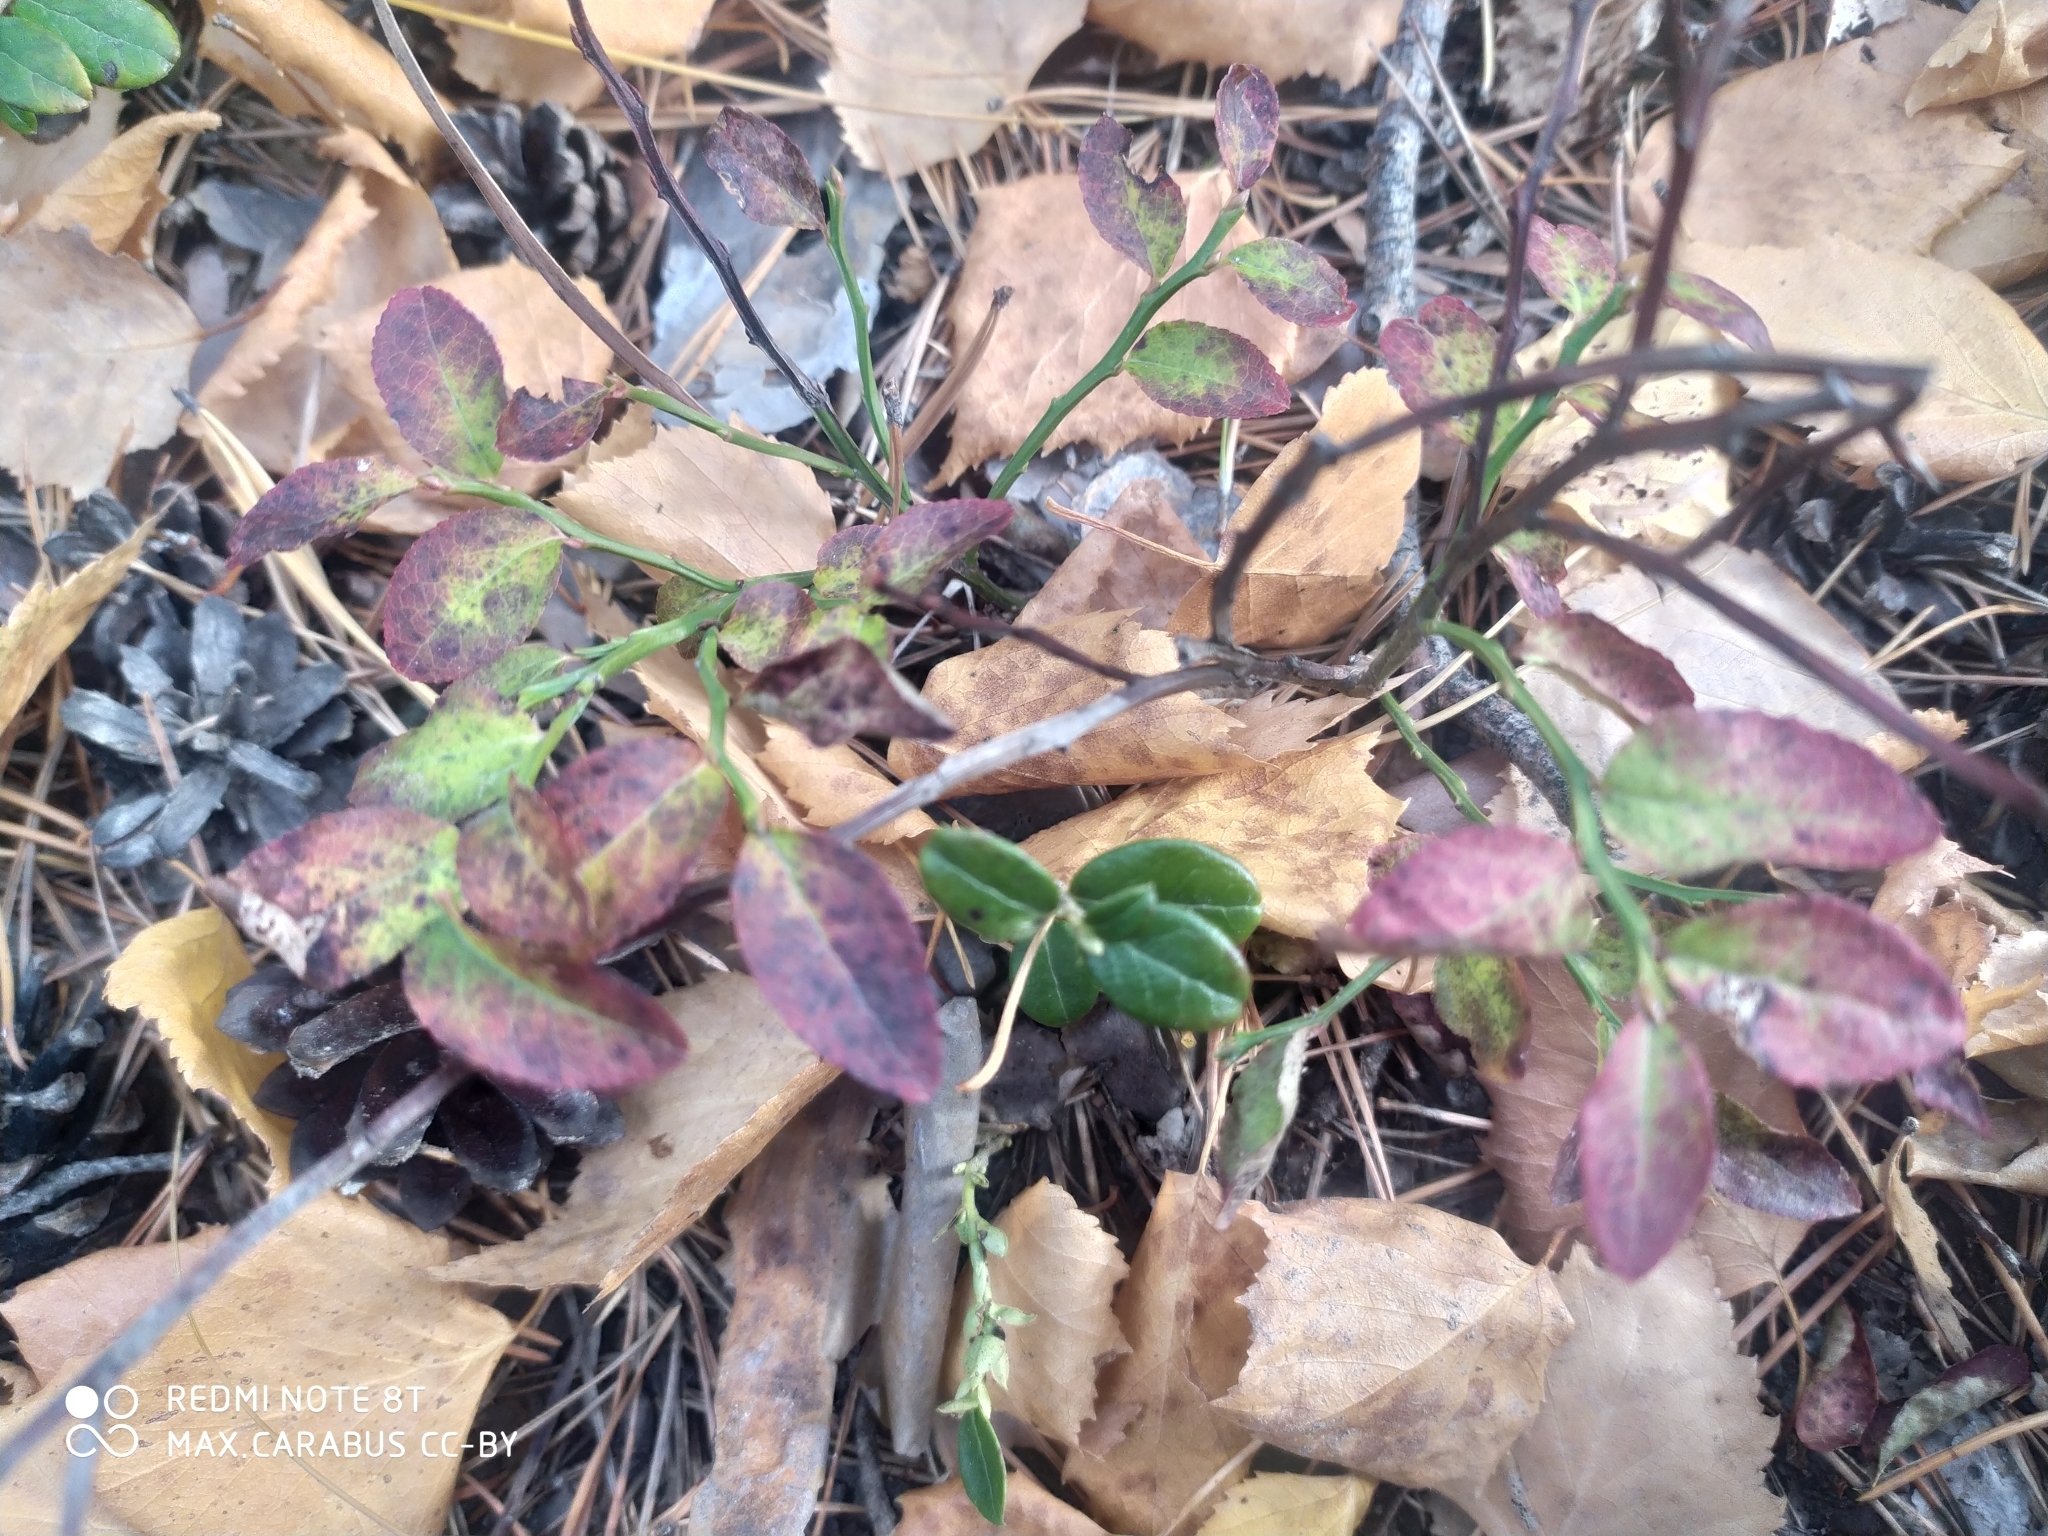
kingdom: Plantae
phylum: Tracheophyta
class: Magnoliopsida
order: Ericales
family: Ericaceae
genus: Vaccinium
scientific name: Vaccinium myrtillus
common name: Bilberry
